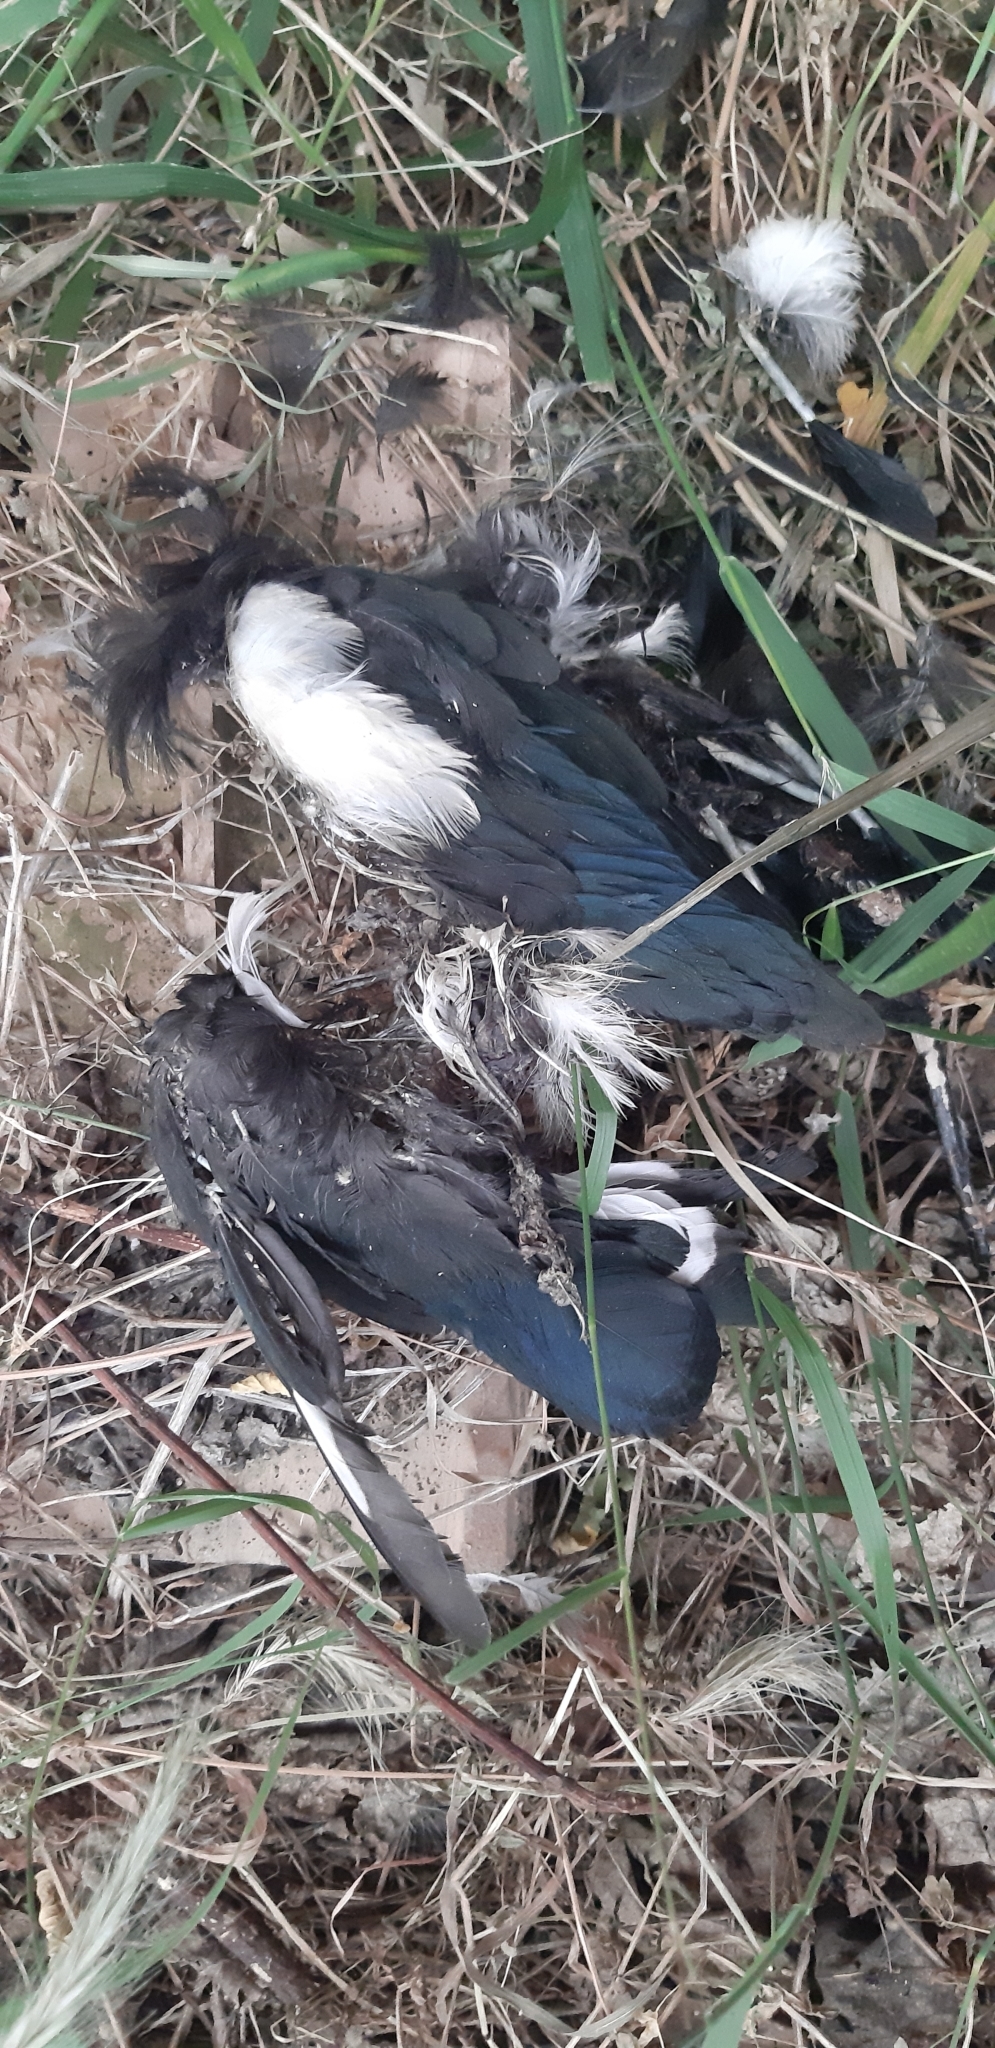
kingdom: Animalia
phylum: Chordata
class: Aves
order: Passeriformes
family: Corvidae
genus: Pica
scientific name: Pica pica
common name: Eurasian magpie
